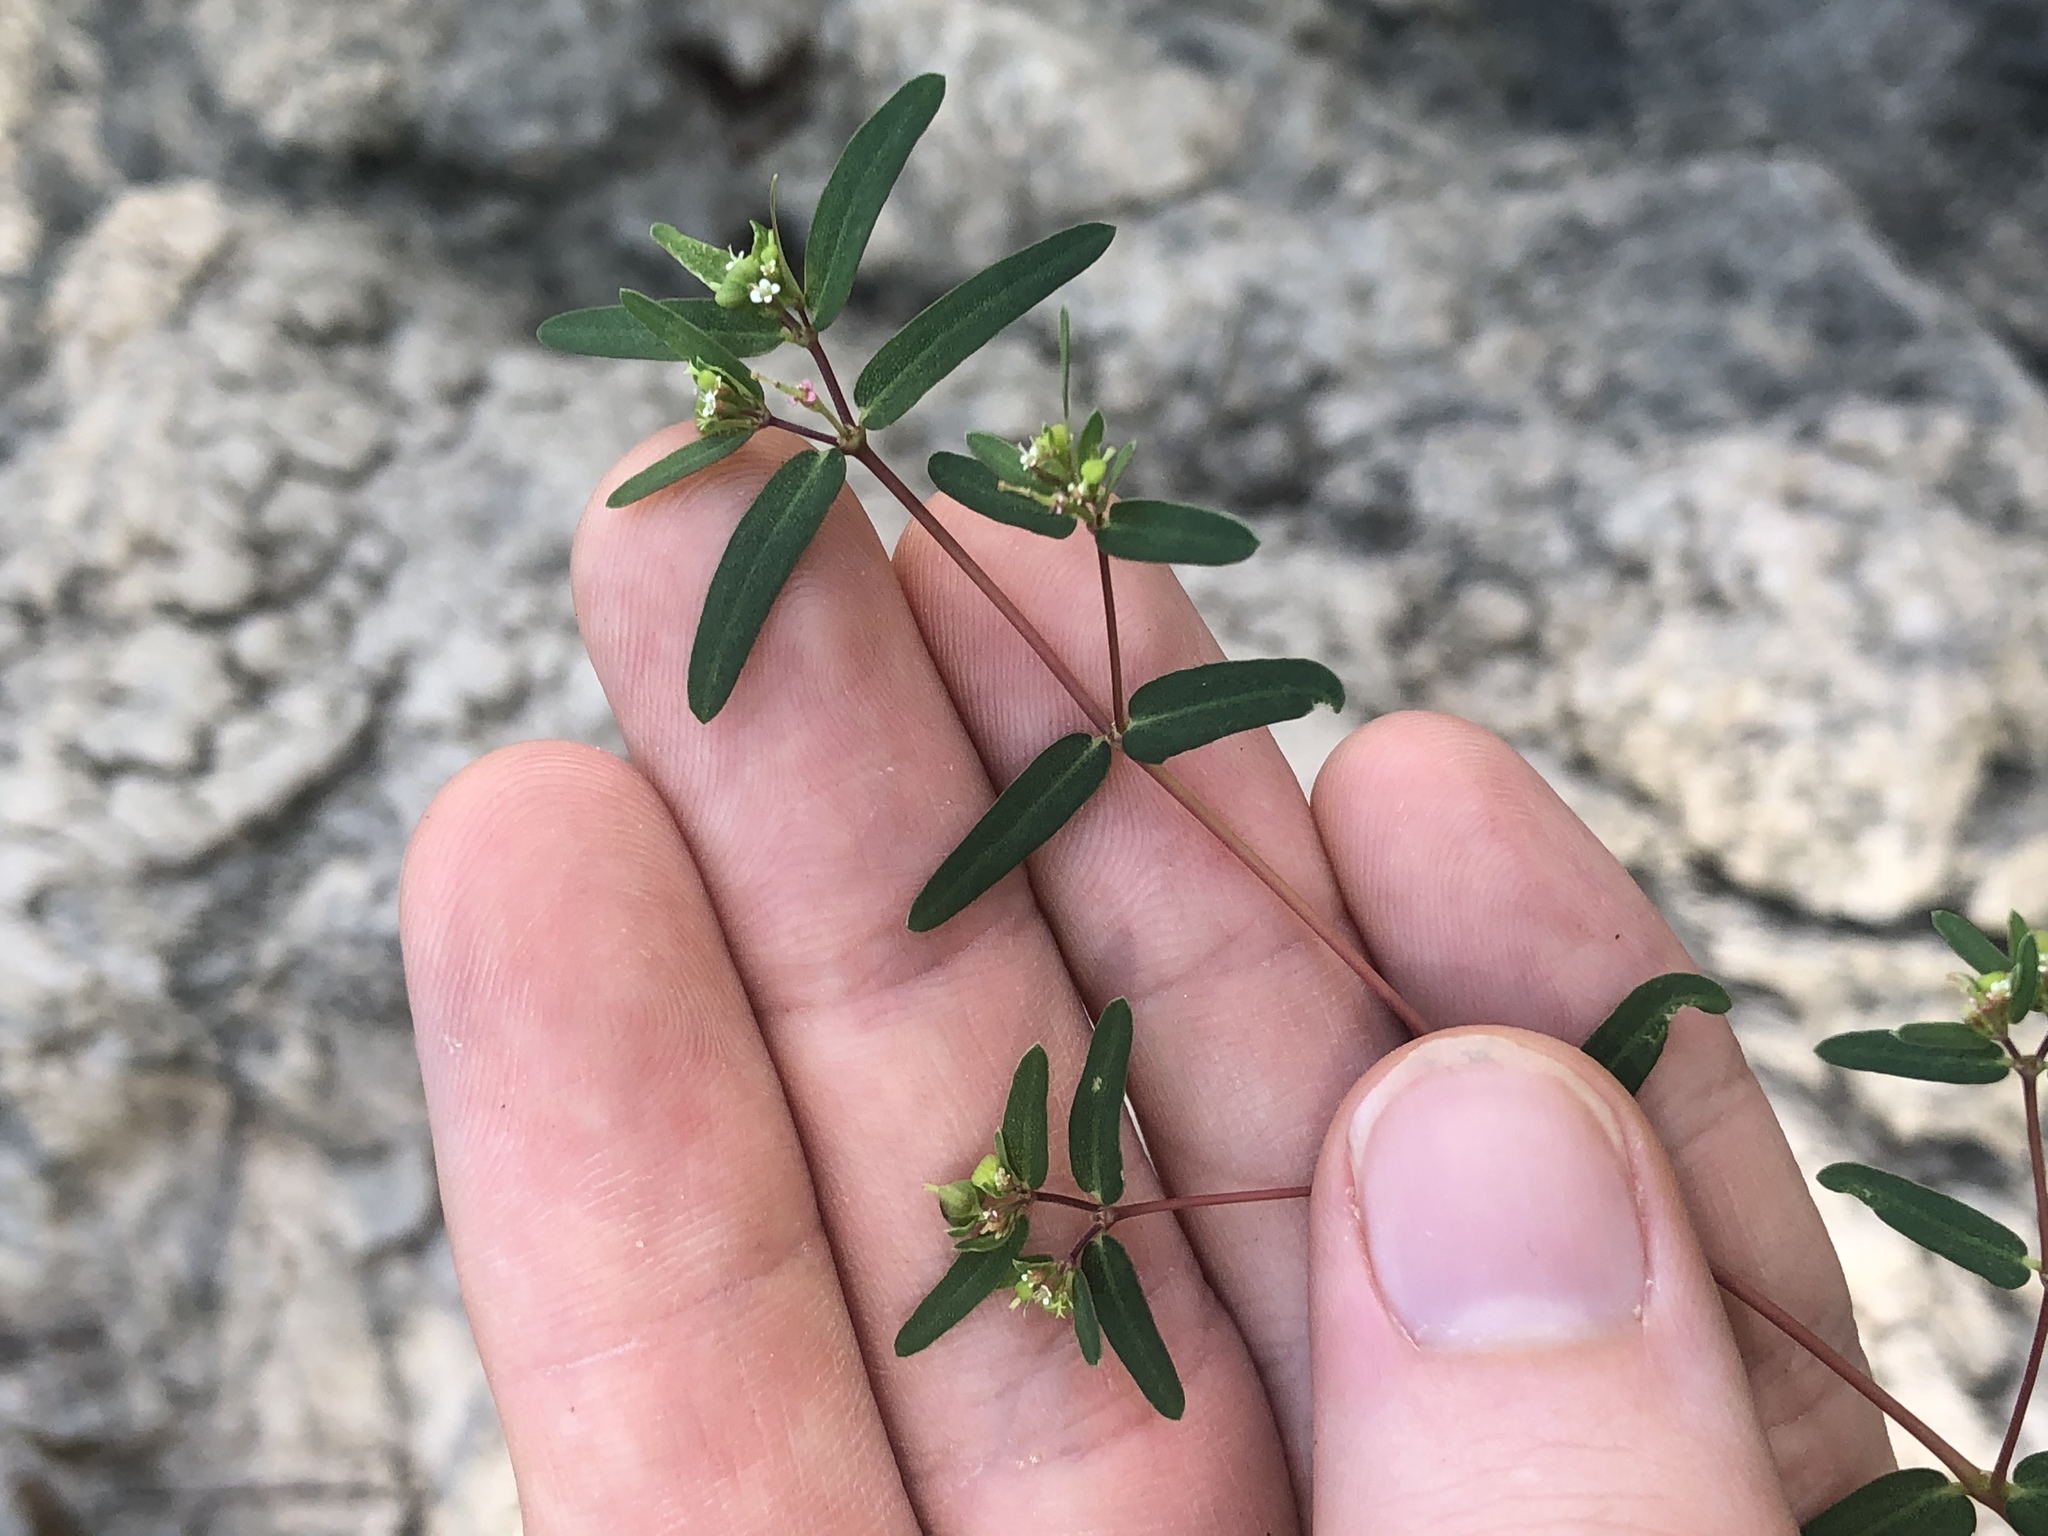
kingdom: Plantae
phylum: Tracheophyta
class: Magnoliopsida
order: Malpighiales
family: Euphorbiaceae
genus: Euphorbia
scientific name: Euphorbia nutans
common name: Eyebane
